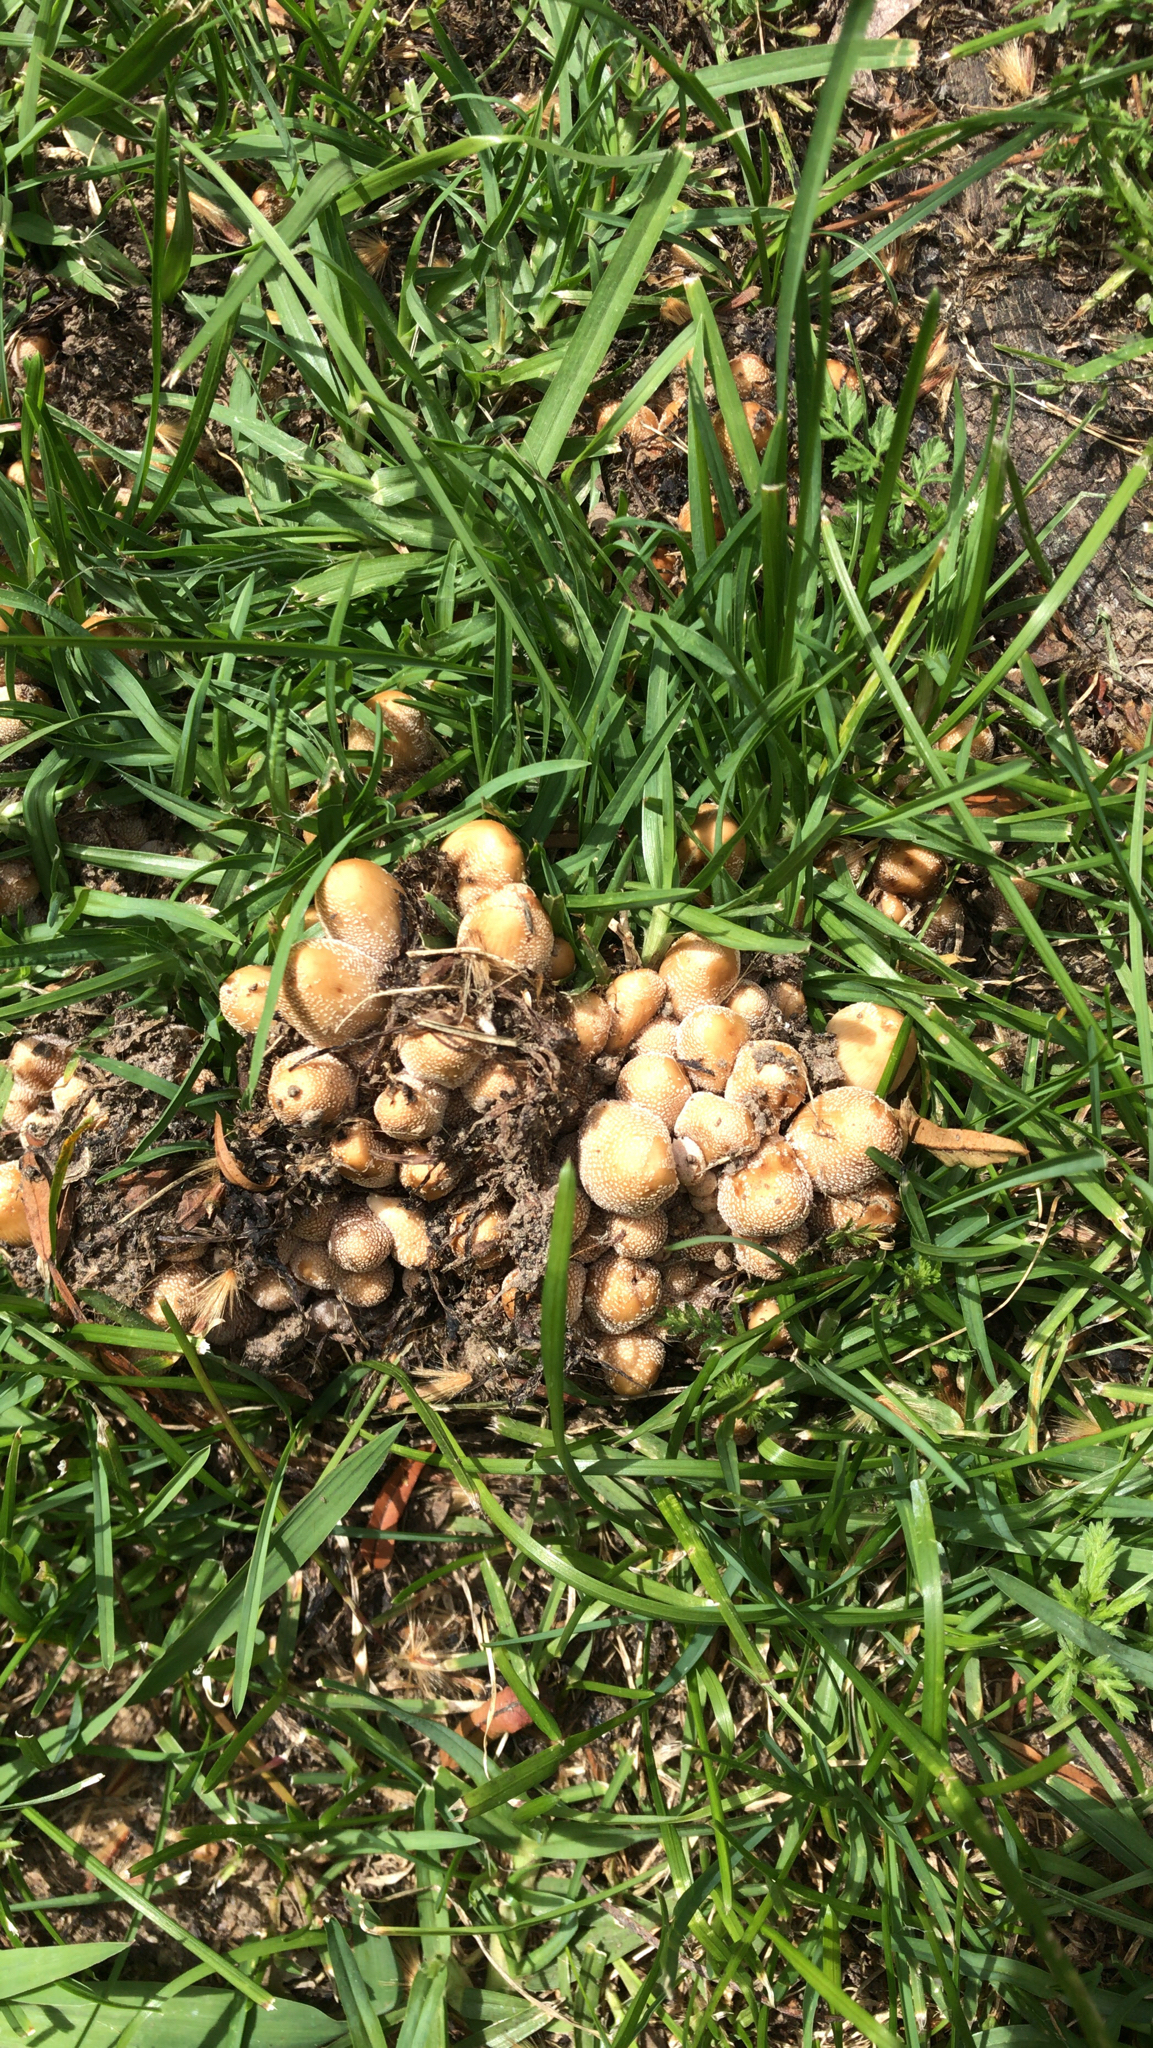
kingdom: Fungi
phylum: Basidiomycota
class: Agaricomycetes
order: Agaricales
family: Psathyrellaceae
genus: Coprinellus
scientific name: Coprinellus micaceus
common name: Glistening ink-cap
